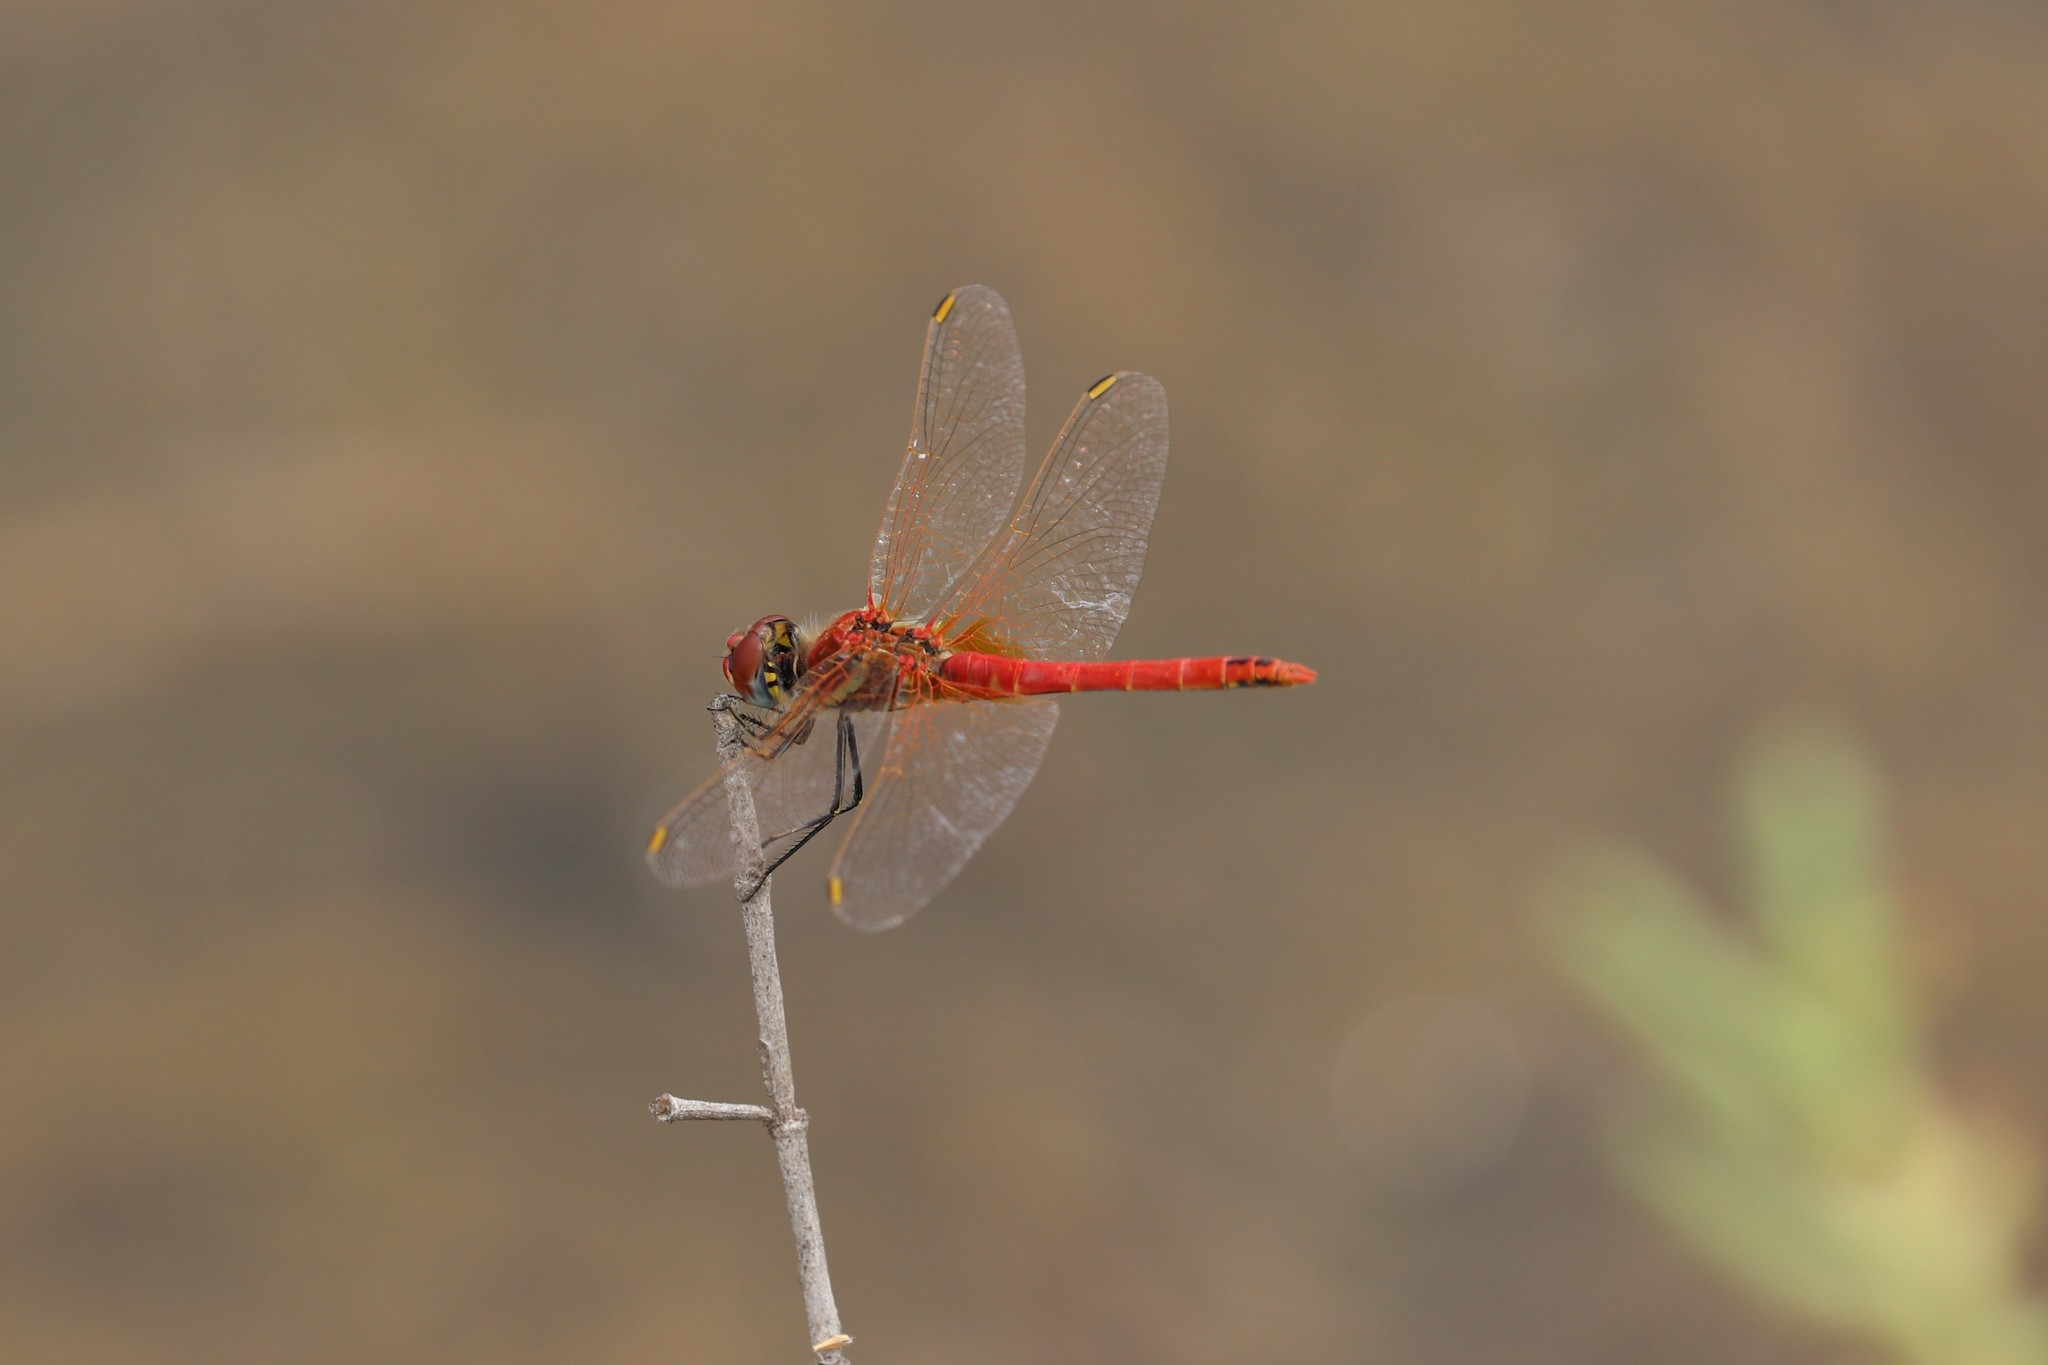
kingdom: Animalia
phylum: Arthropoda
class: Insecta
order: Odonata
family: Libellulidae
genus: Sympetrum
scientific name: Sympetrum fonscolombii
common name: Red-veined darter
